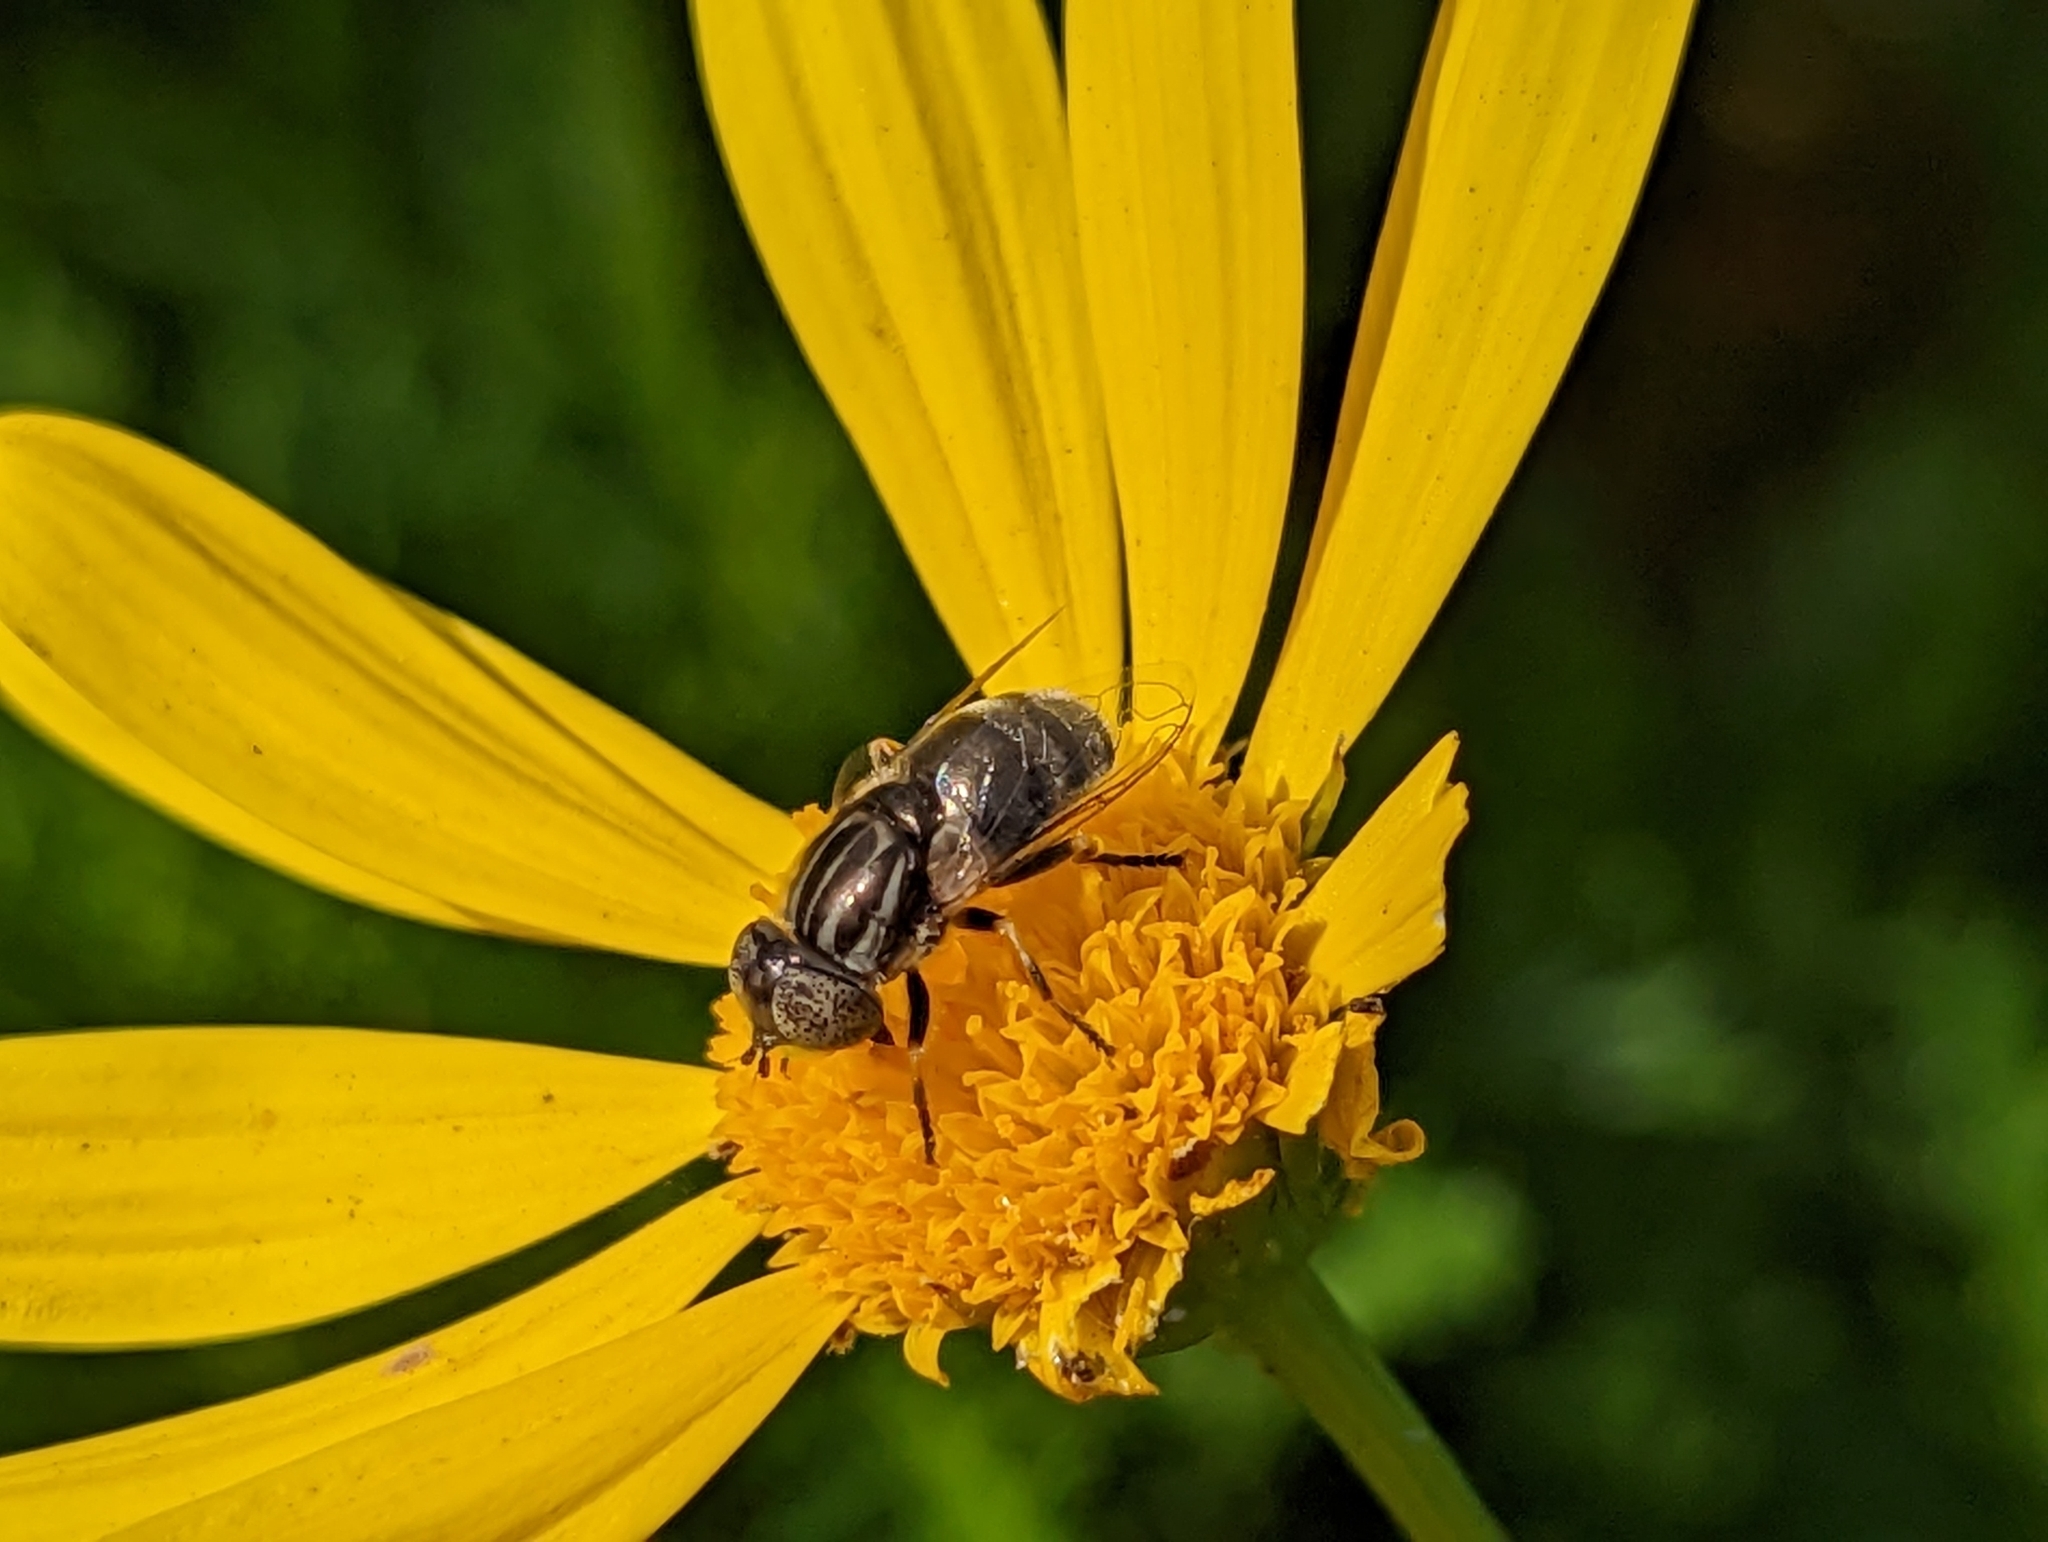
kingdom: Animalia
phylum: Arthropoda
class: Insecta
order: Diptera
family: Syrphidae
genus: Eristalinus
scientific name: Eristalinus aeneus
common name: Syrphid fly
